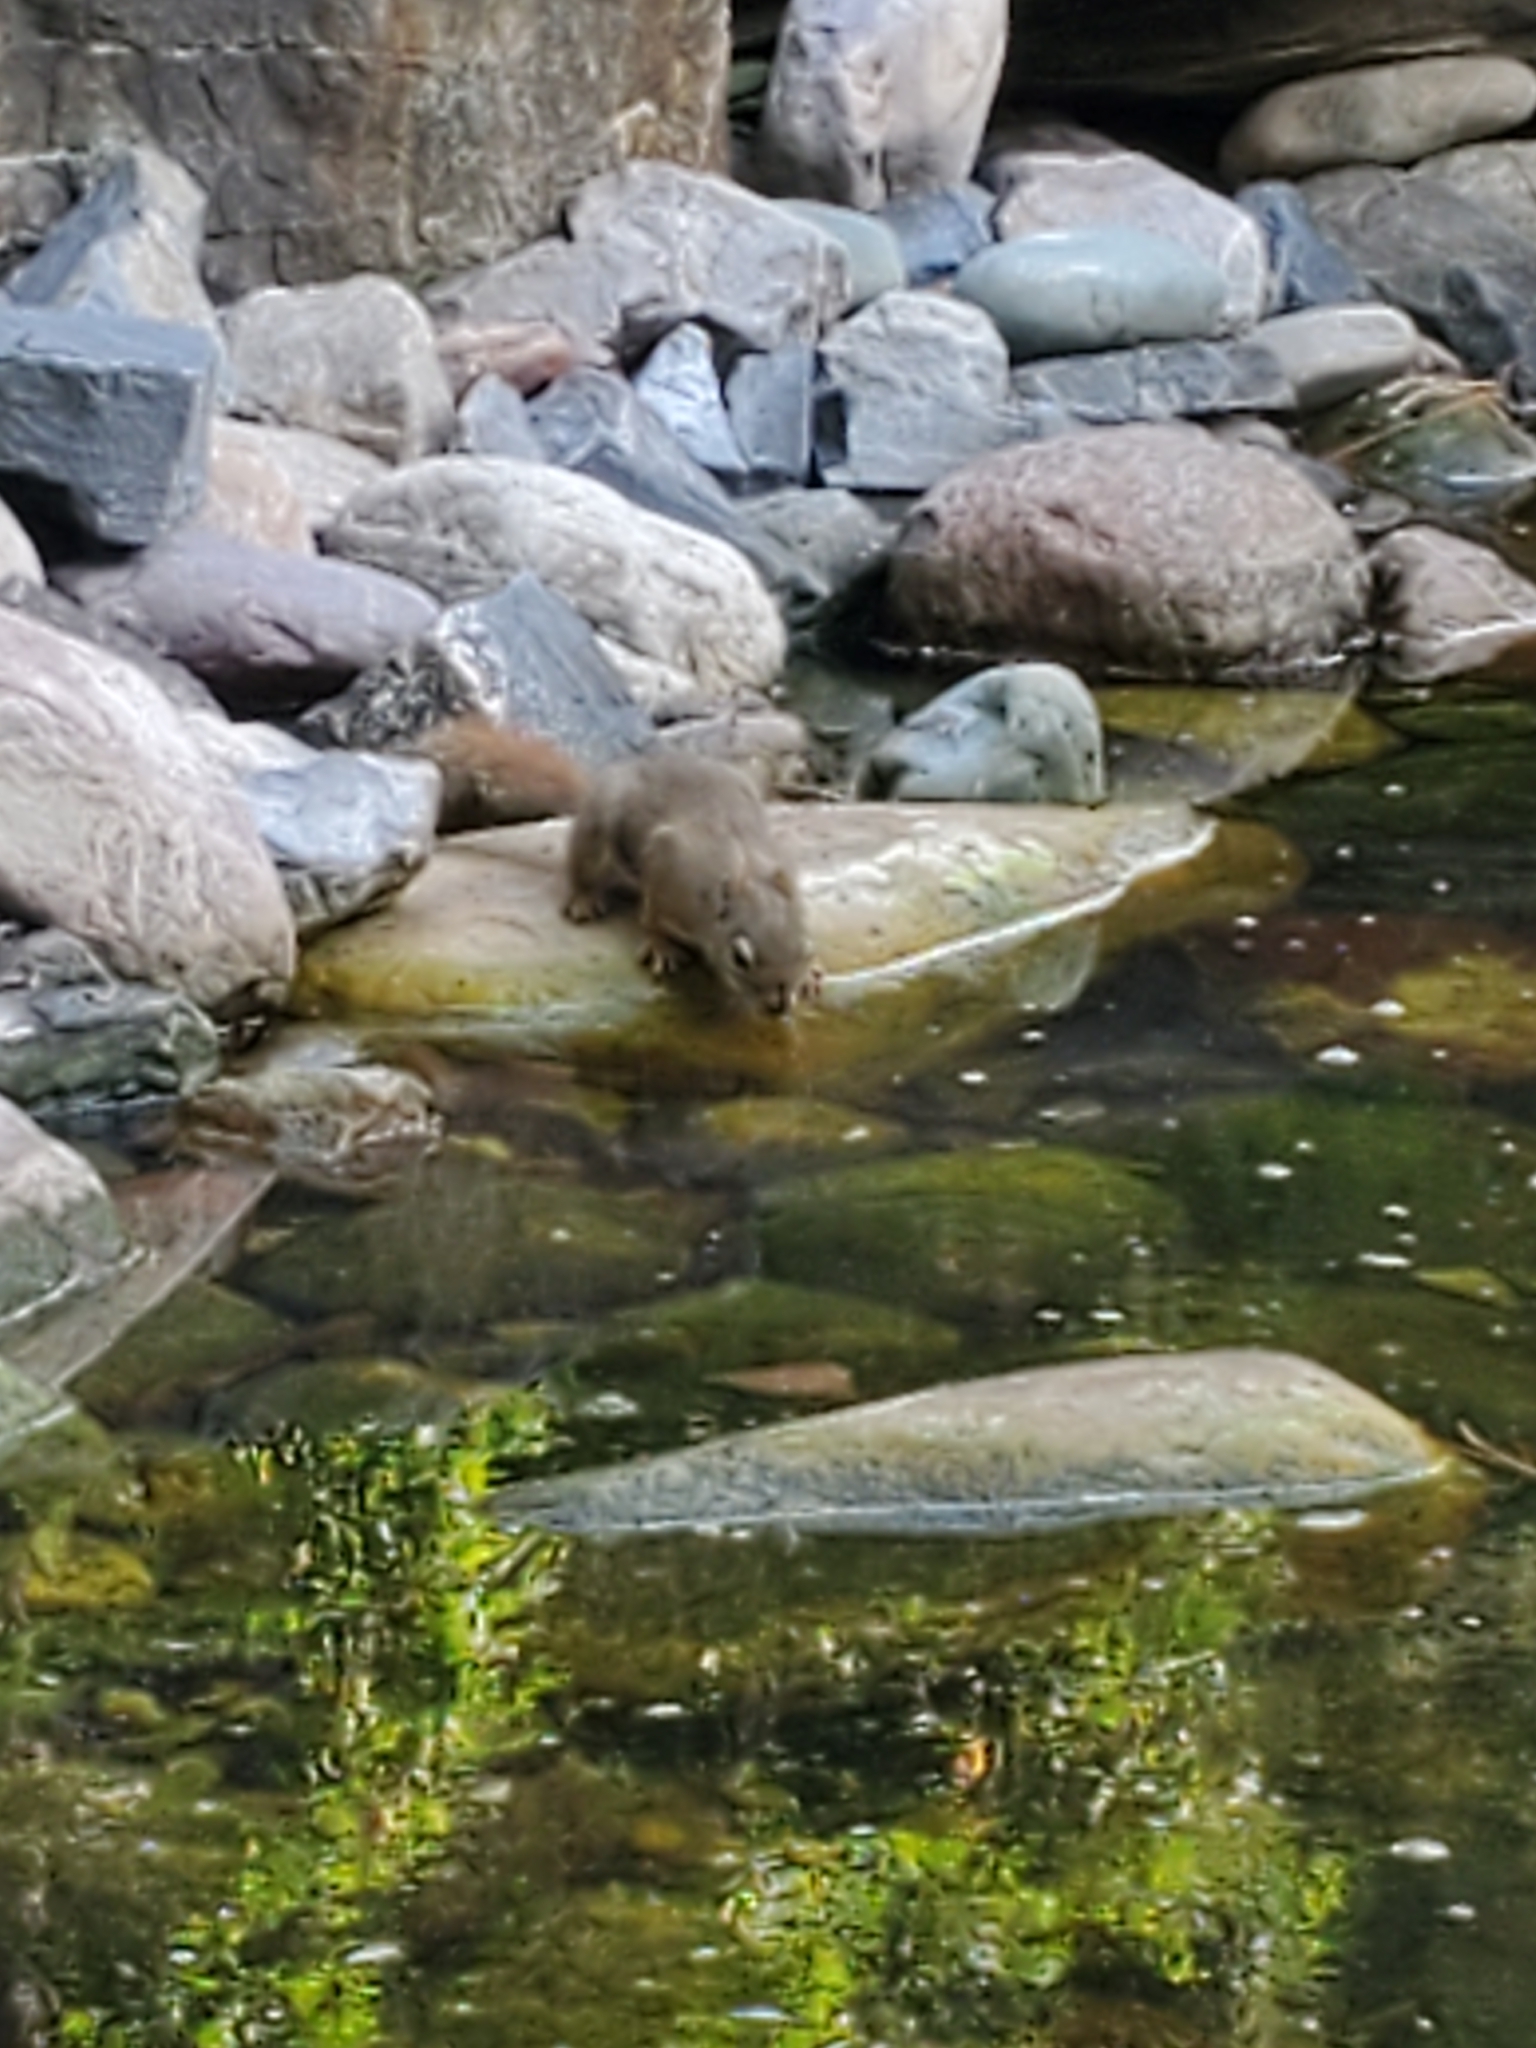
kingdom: Animalia
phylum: Chordata
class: Mammalia
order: Rodentia
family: Sciuridae
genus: Tamiasciurus
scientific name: Tamiasciurus hudsonicus
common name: Red squirrel
